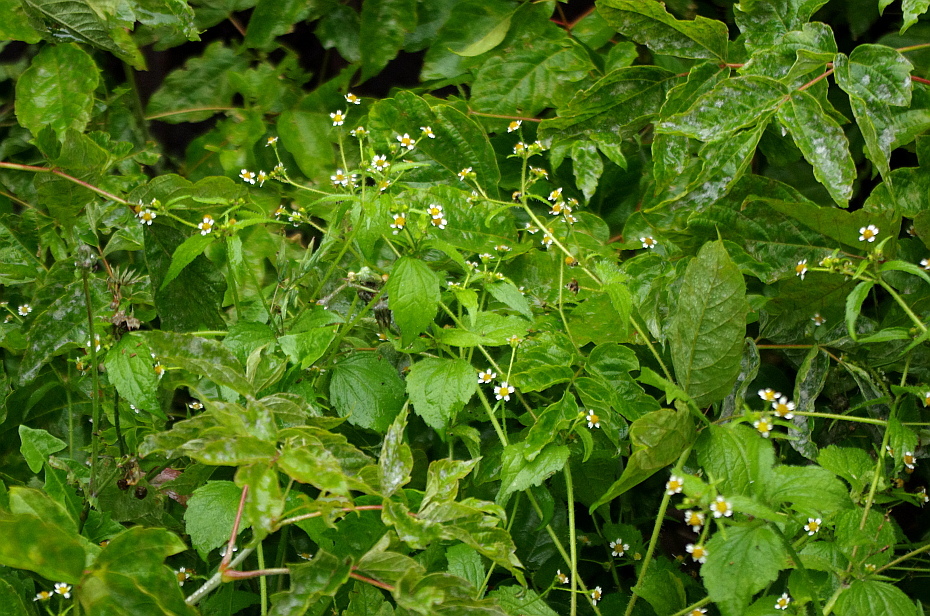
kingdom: Plantae
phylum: Tracheophyta
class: Magnoliopsida
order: Asterales
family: Asteraceae
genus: Galinsoga
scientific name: Galinsoga quadriradiata
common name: Shaggy soldier
